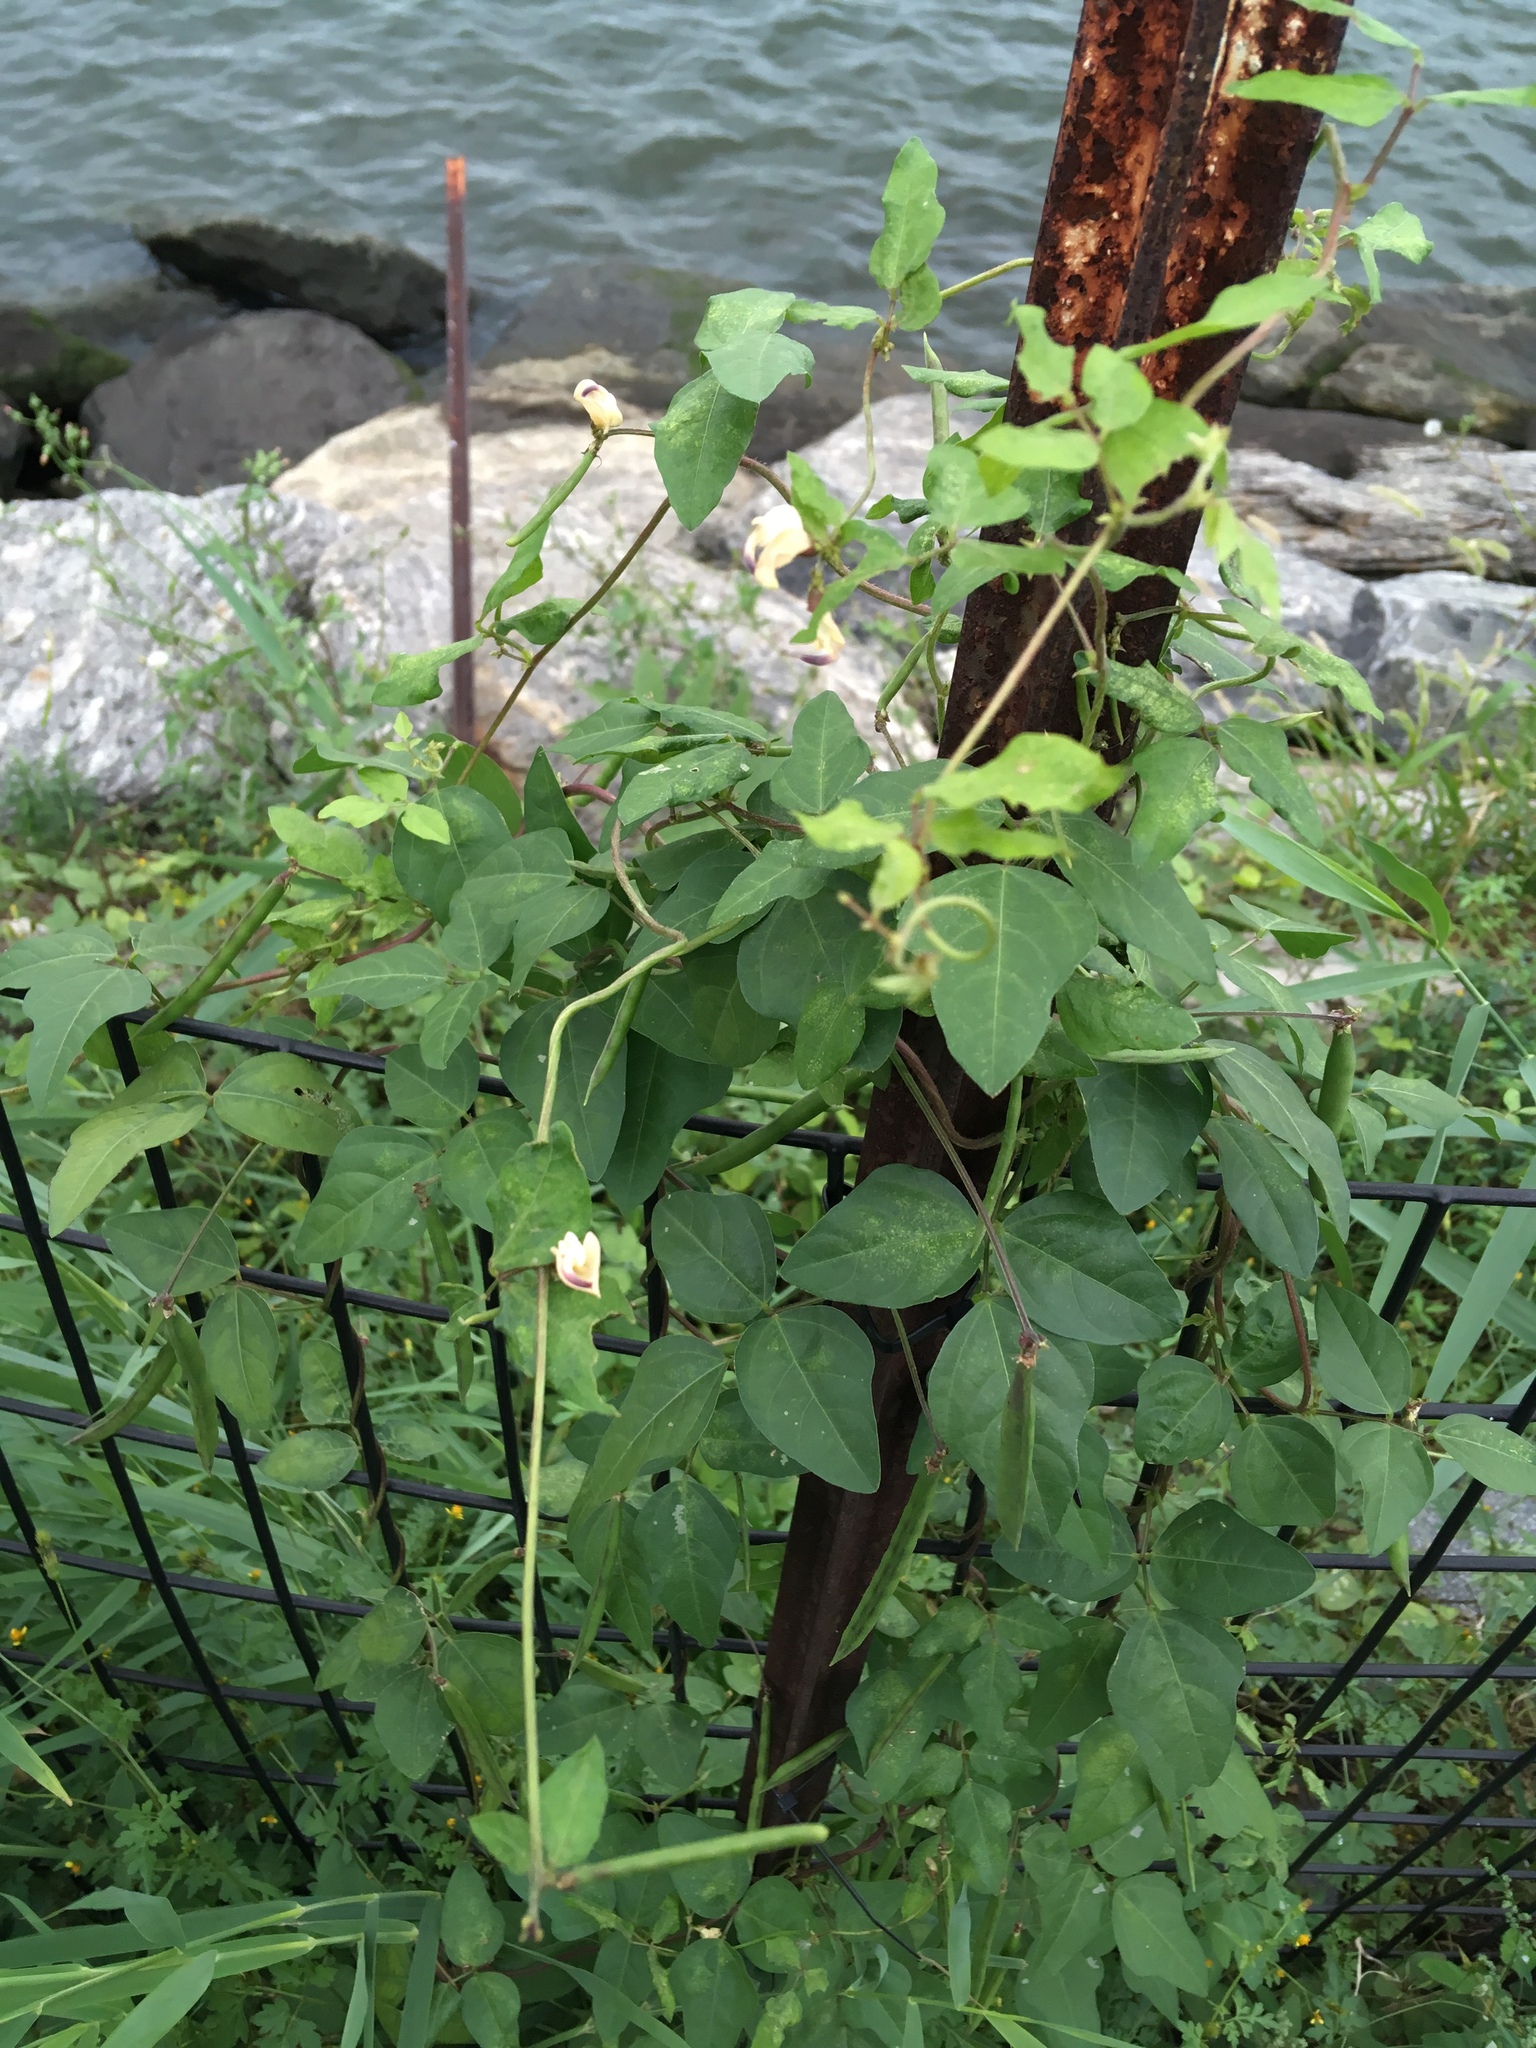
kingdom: Plantae
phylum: Tracheophyta
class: Magnoliopsida
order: Fabales
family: Fabaceae
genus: Strophostyles
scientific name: Strophostyles helvola
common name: Trailing wild bean
